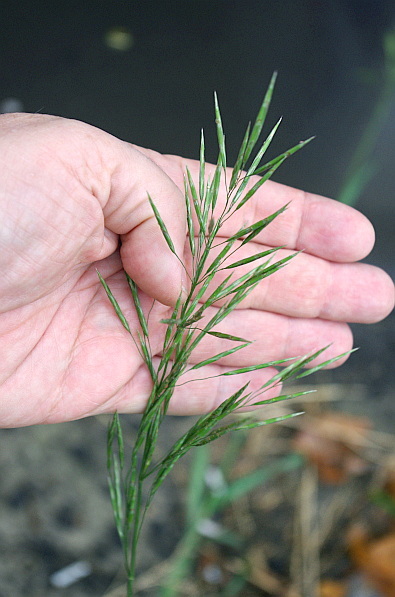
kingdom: Plantae
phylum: Tracheophyta
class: Liliopsida
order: Poales
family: Poaceae
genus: Bromus
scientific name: Bromus inermis
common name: Smooth brome
